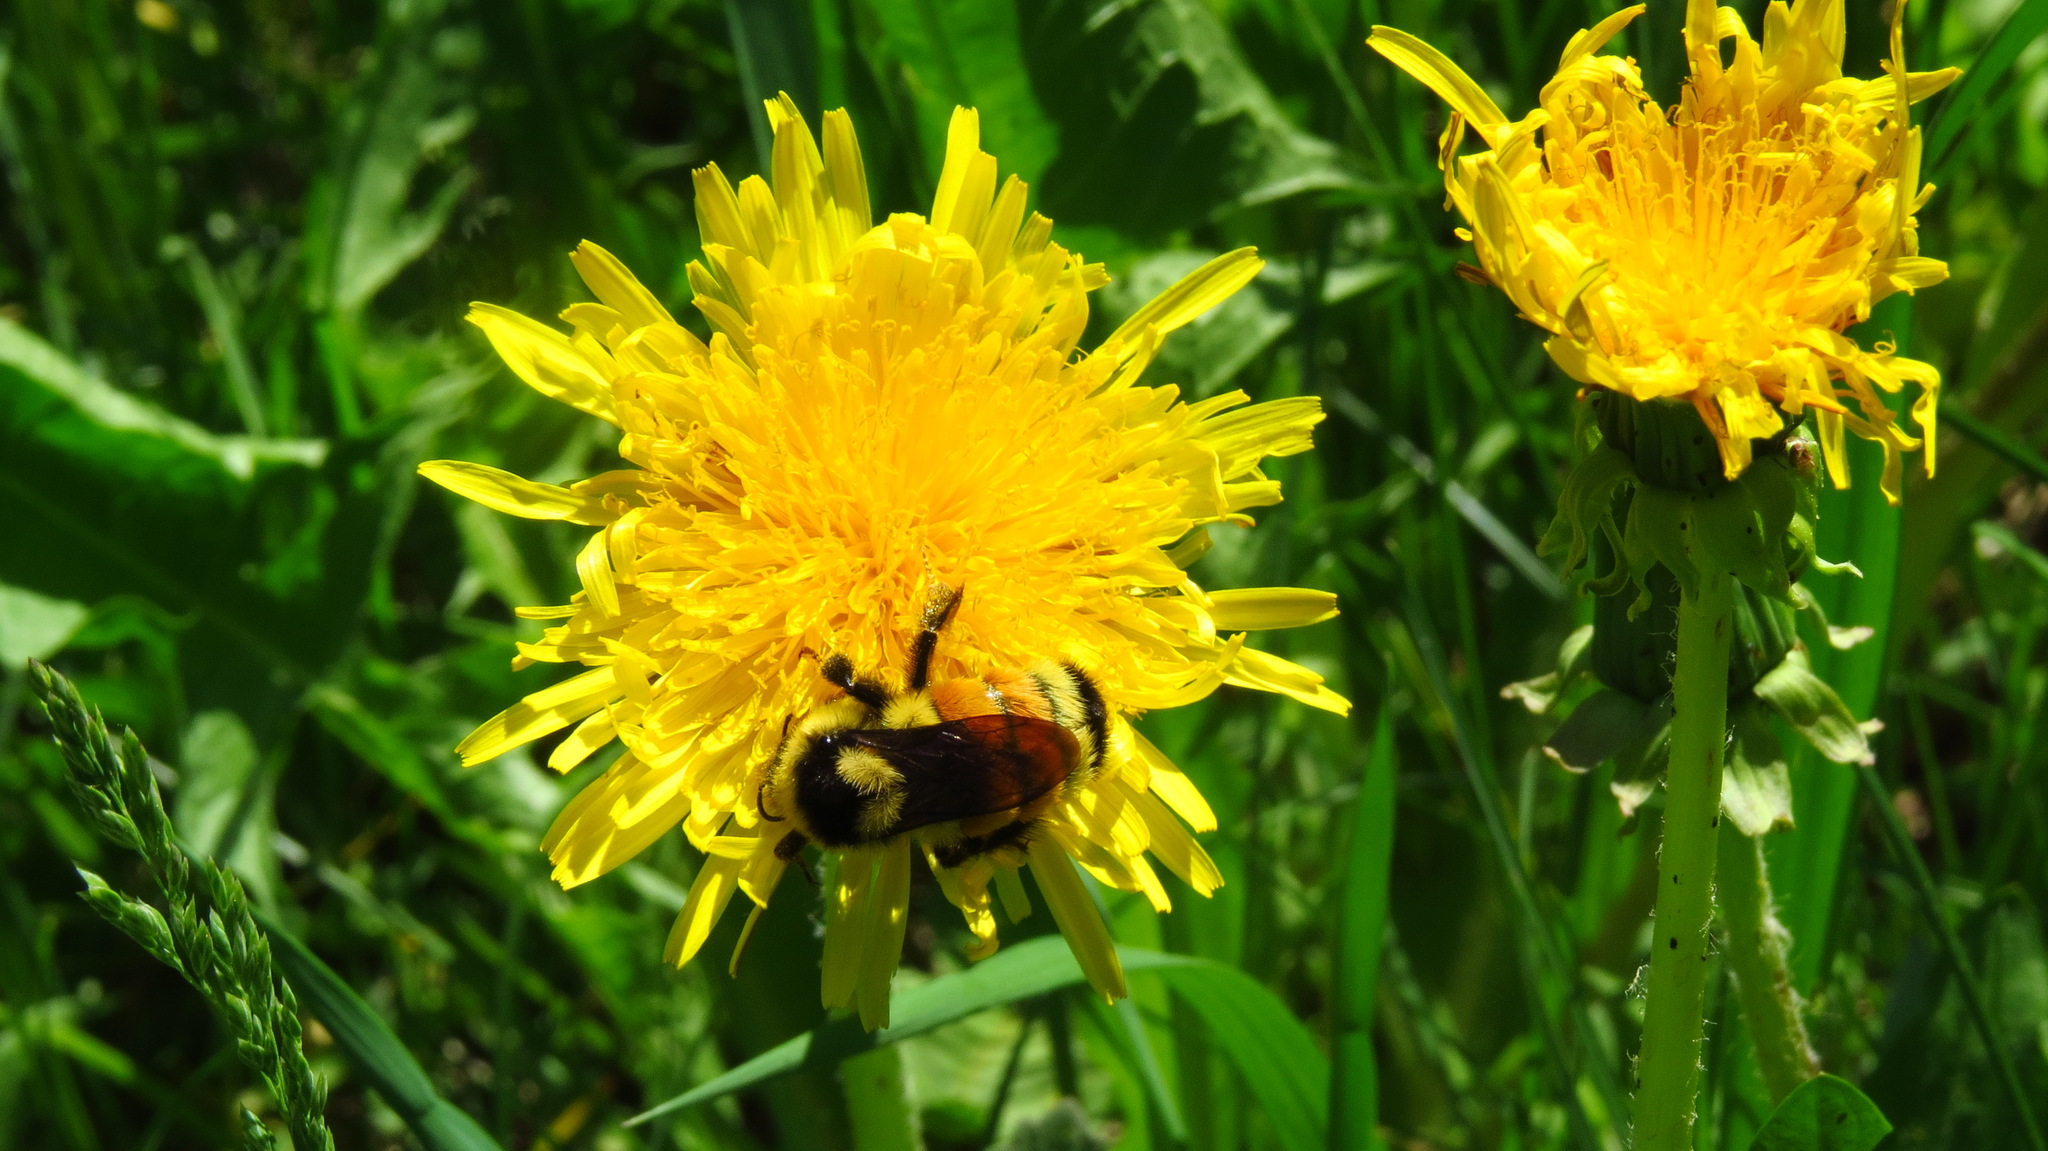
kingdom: Animalia
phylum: Arthropoda
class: Insecta
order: Hymenoptera
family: Apidae
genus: Bombus
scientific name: Bombus ternarius
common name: Tri-colored bumble bee
